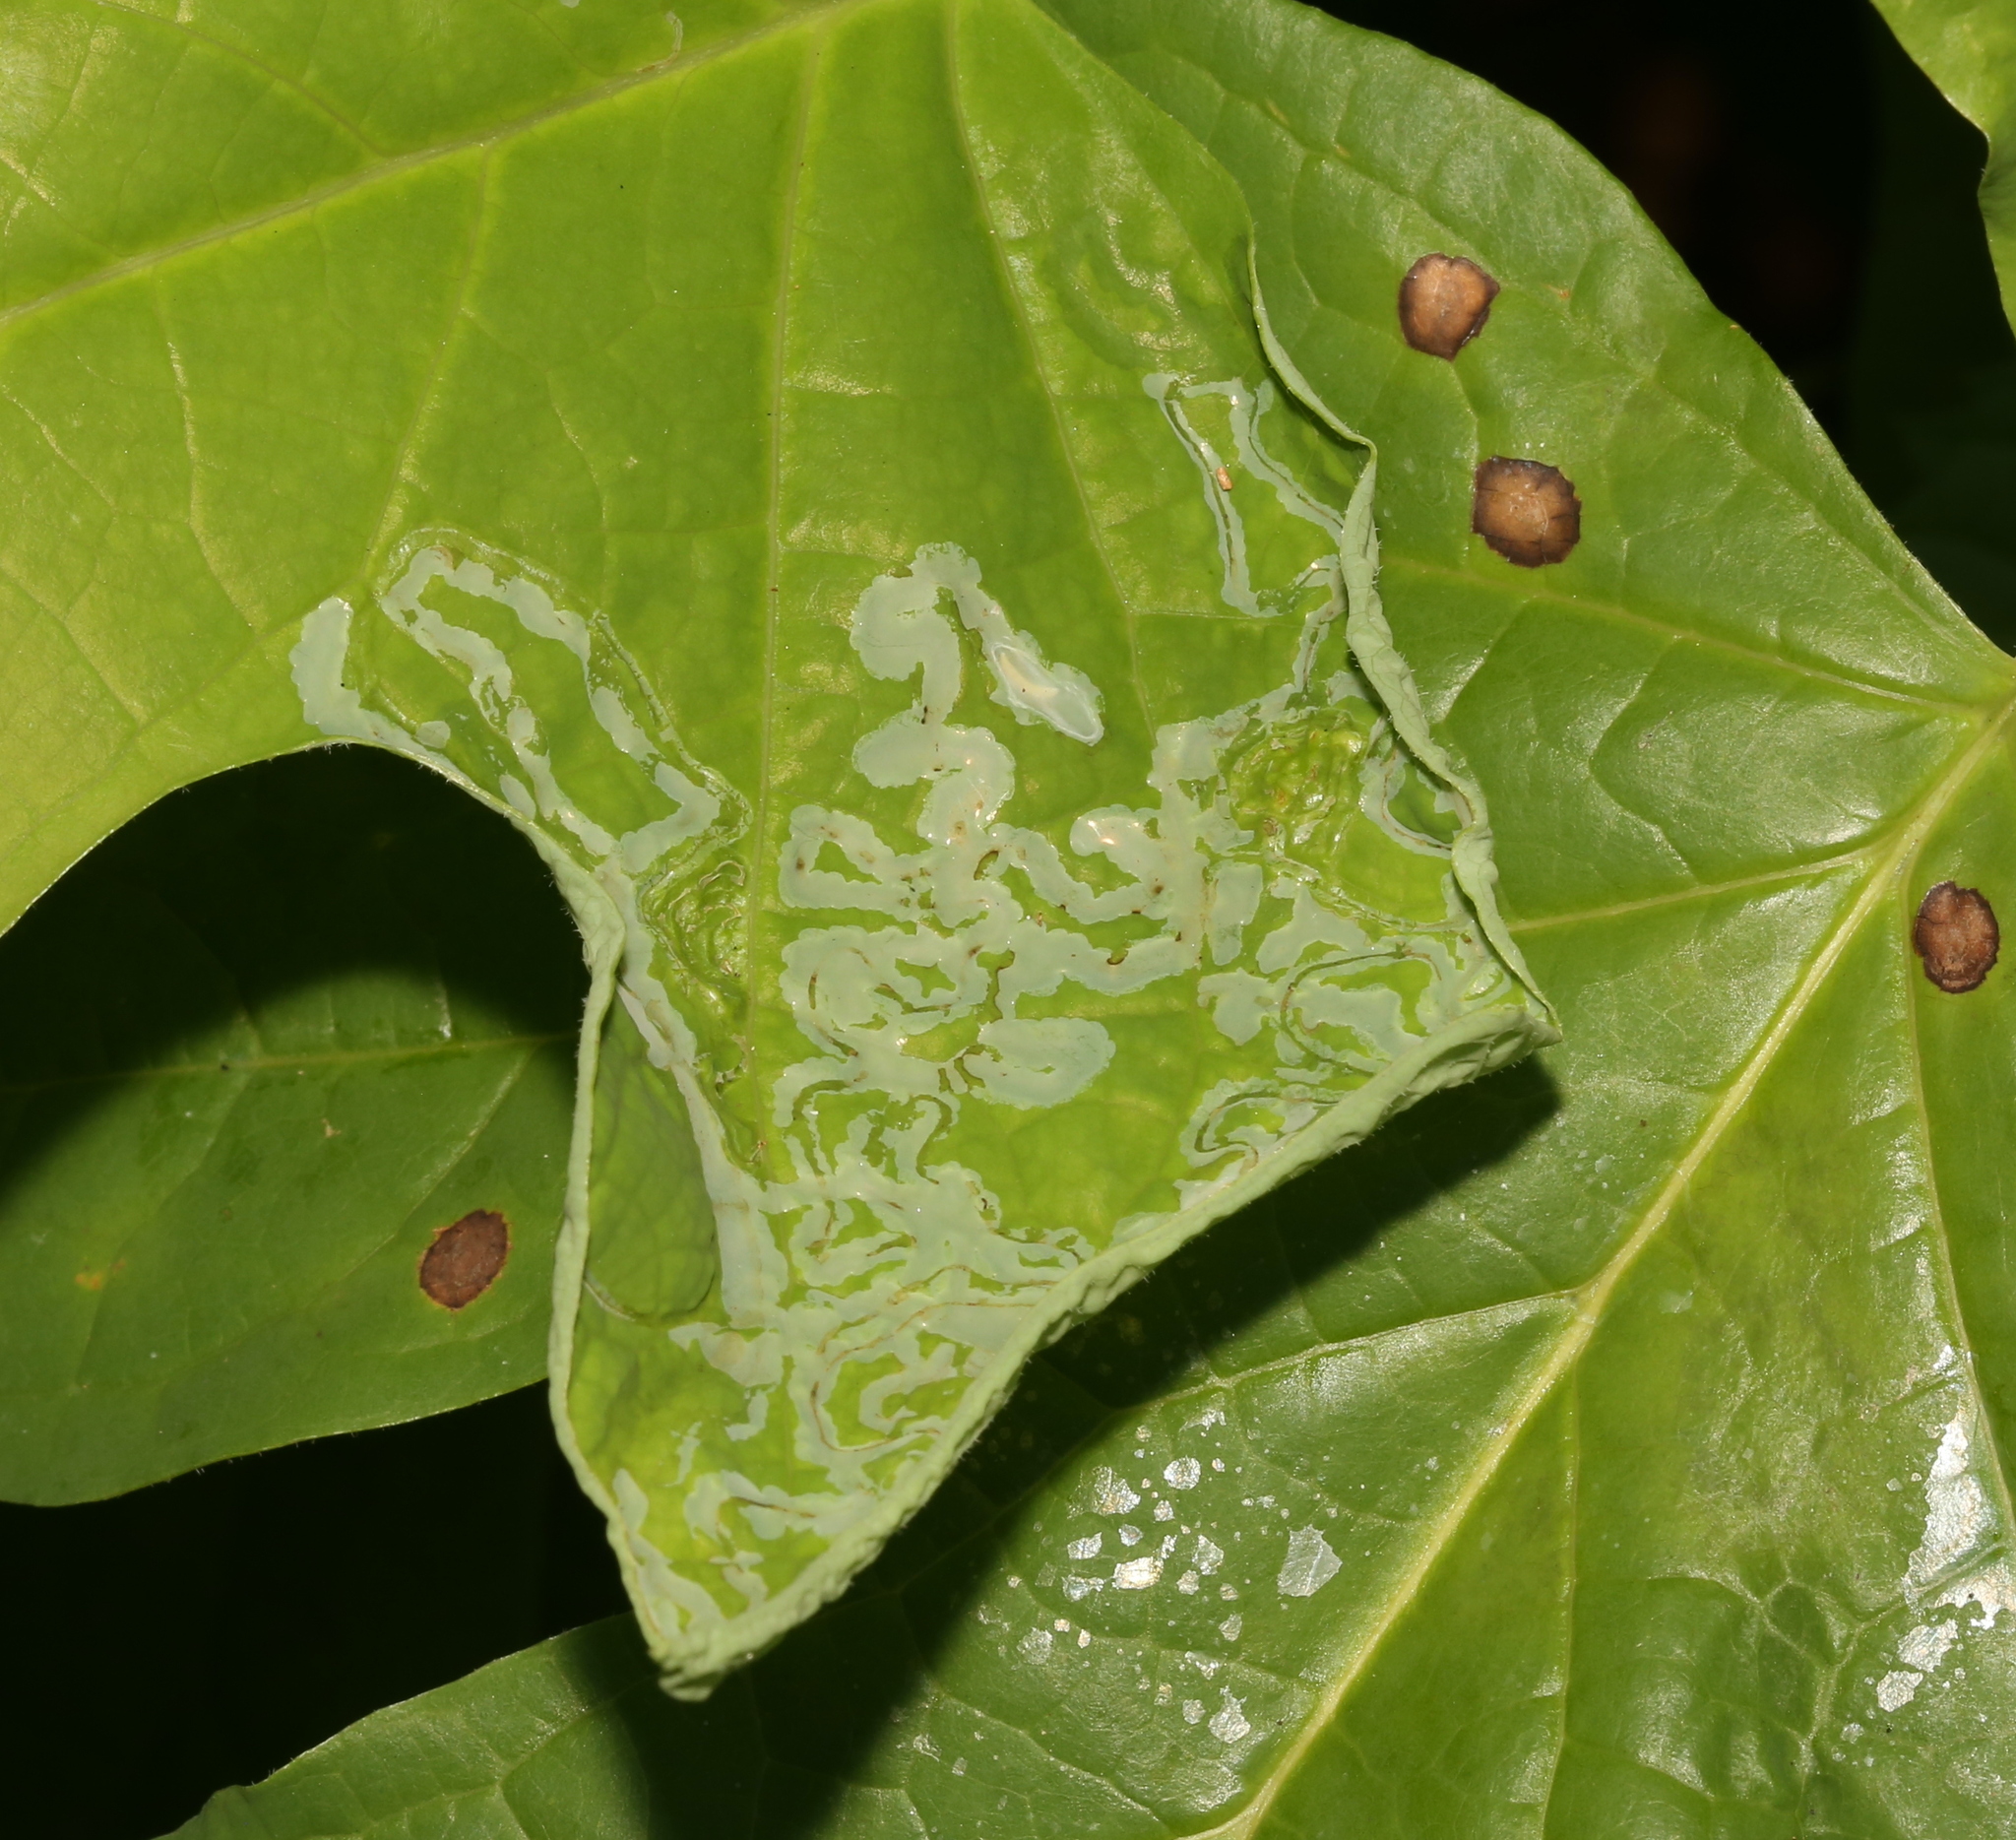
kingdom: Animalia
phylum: Arthropoda
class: Insecta
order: Lepidoptera
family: Gracillariidae
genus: Phyllocnistis
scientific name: Phyllocnistis liriodendronella
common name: Tulip tree leaf miner
